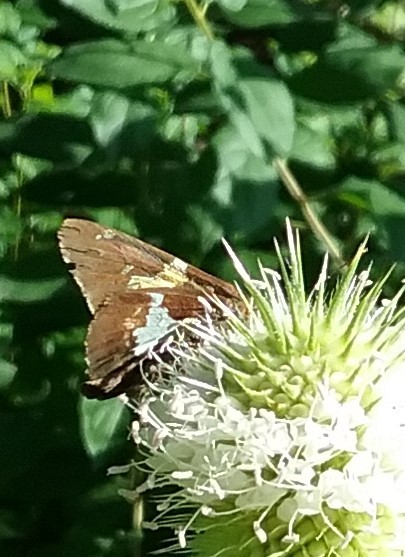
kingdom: Animalia
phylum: Arthropoda
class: Insecta
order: Lepidoptera
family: Hesperiidae
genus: Epargyreus
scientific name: Epargyreus clarus
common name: Silver-spotted skipper
